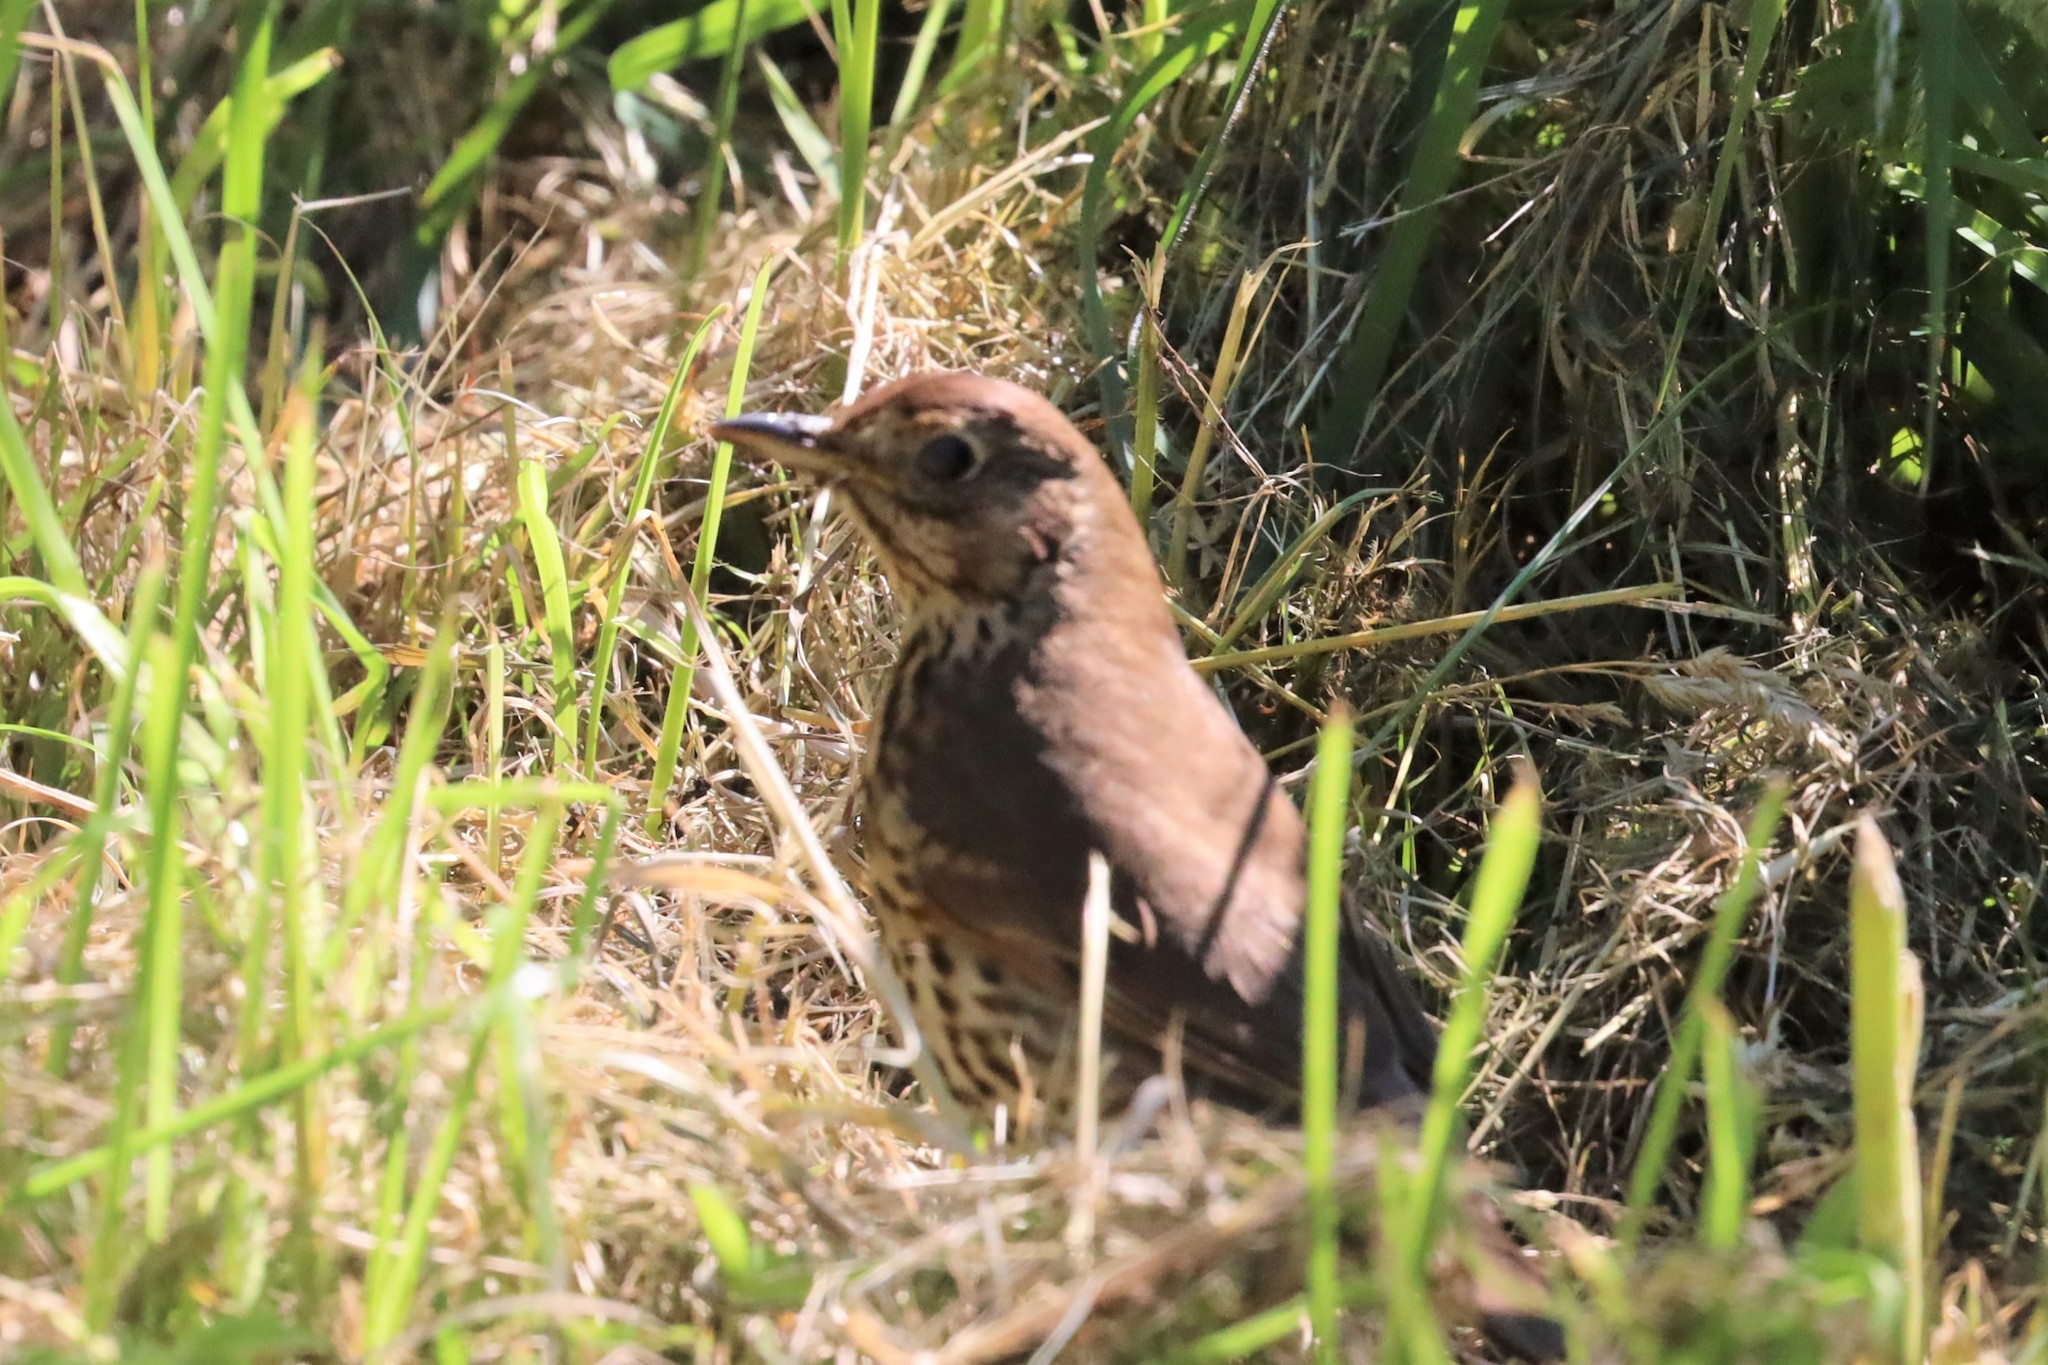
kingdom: Animalia
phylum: Chordata
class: Aves
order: Passeriformes
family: Turdidae
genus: Turdus
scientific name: Turdus philomelos
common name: Song thrush
